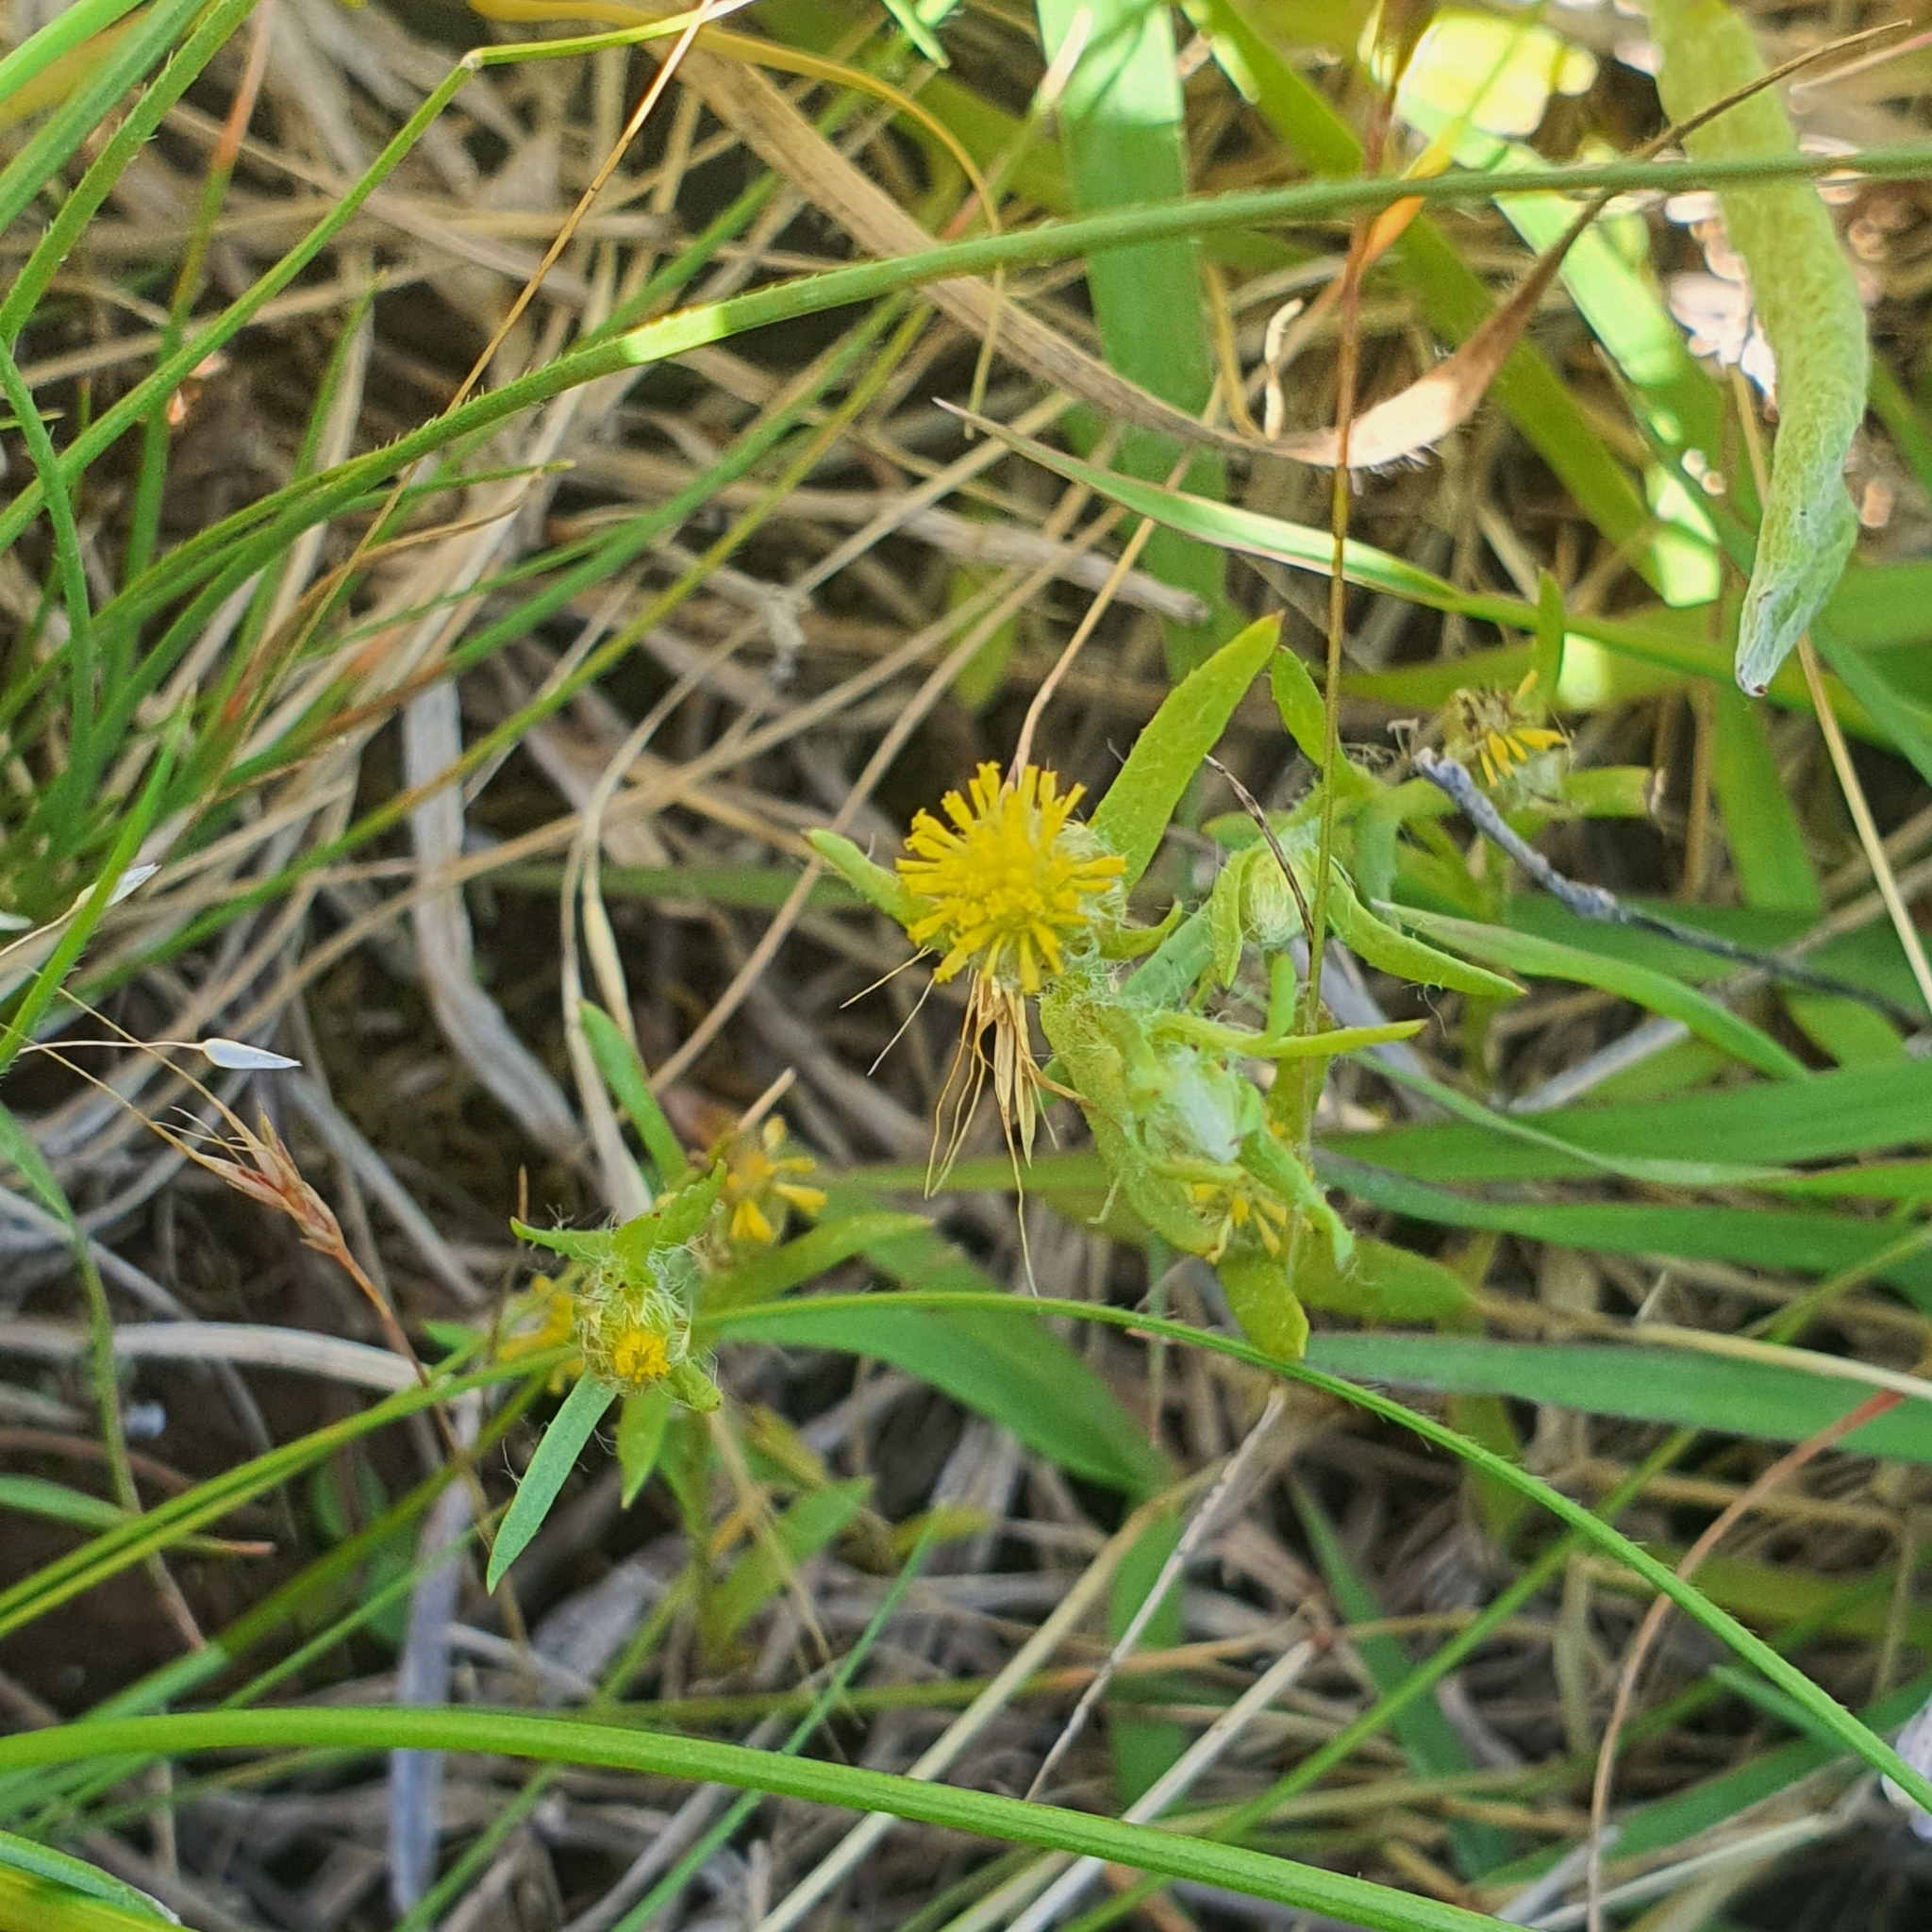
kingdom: Plantae
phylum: Tracheophyta
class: Magnoliopsida
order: Asterales
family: Asteraceae
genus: Triptilodiscus
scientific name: Triptilodiscus pygmaeus
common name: Common sunray
